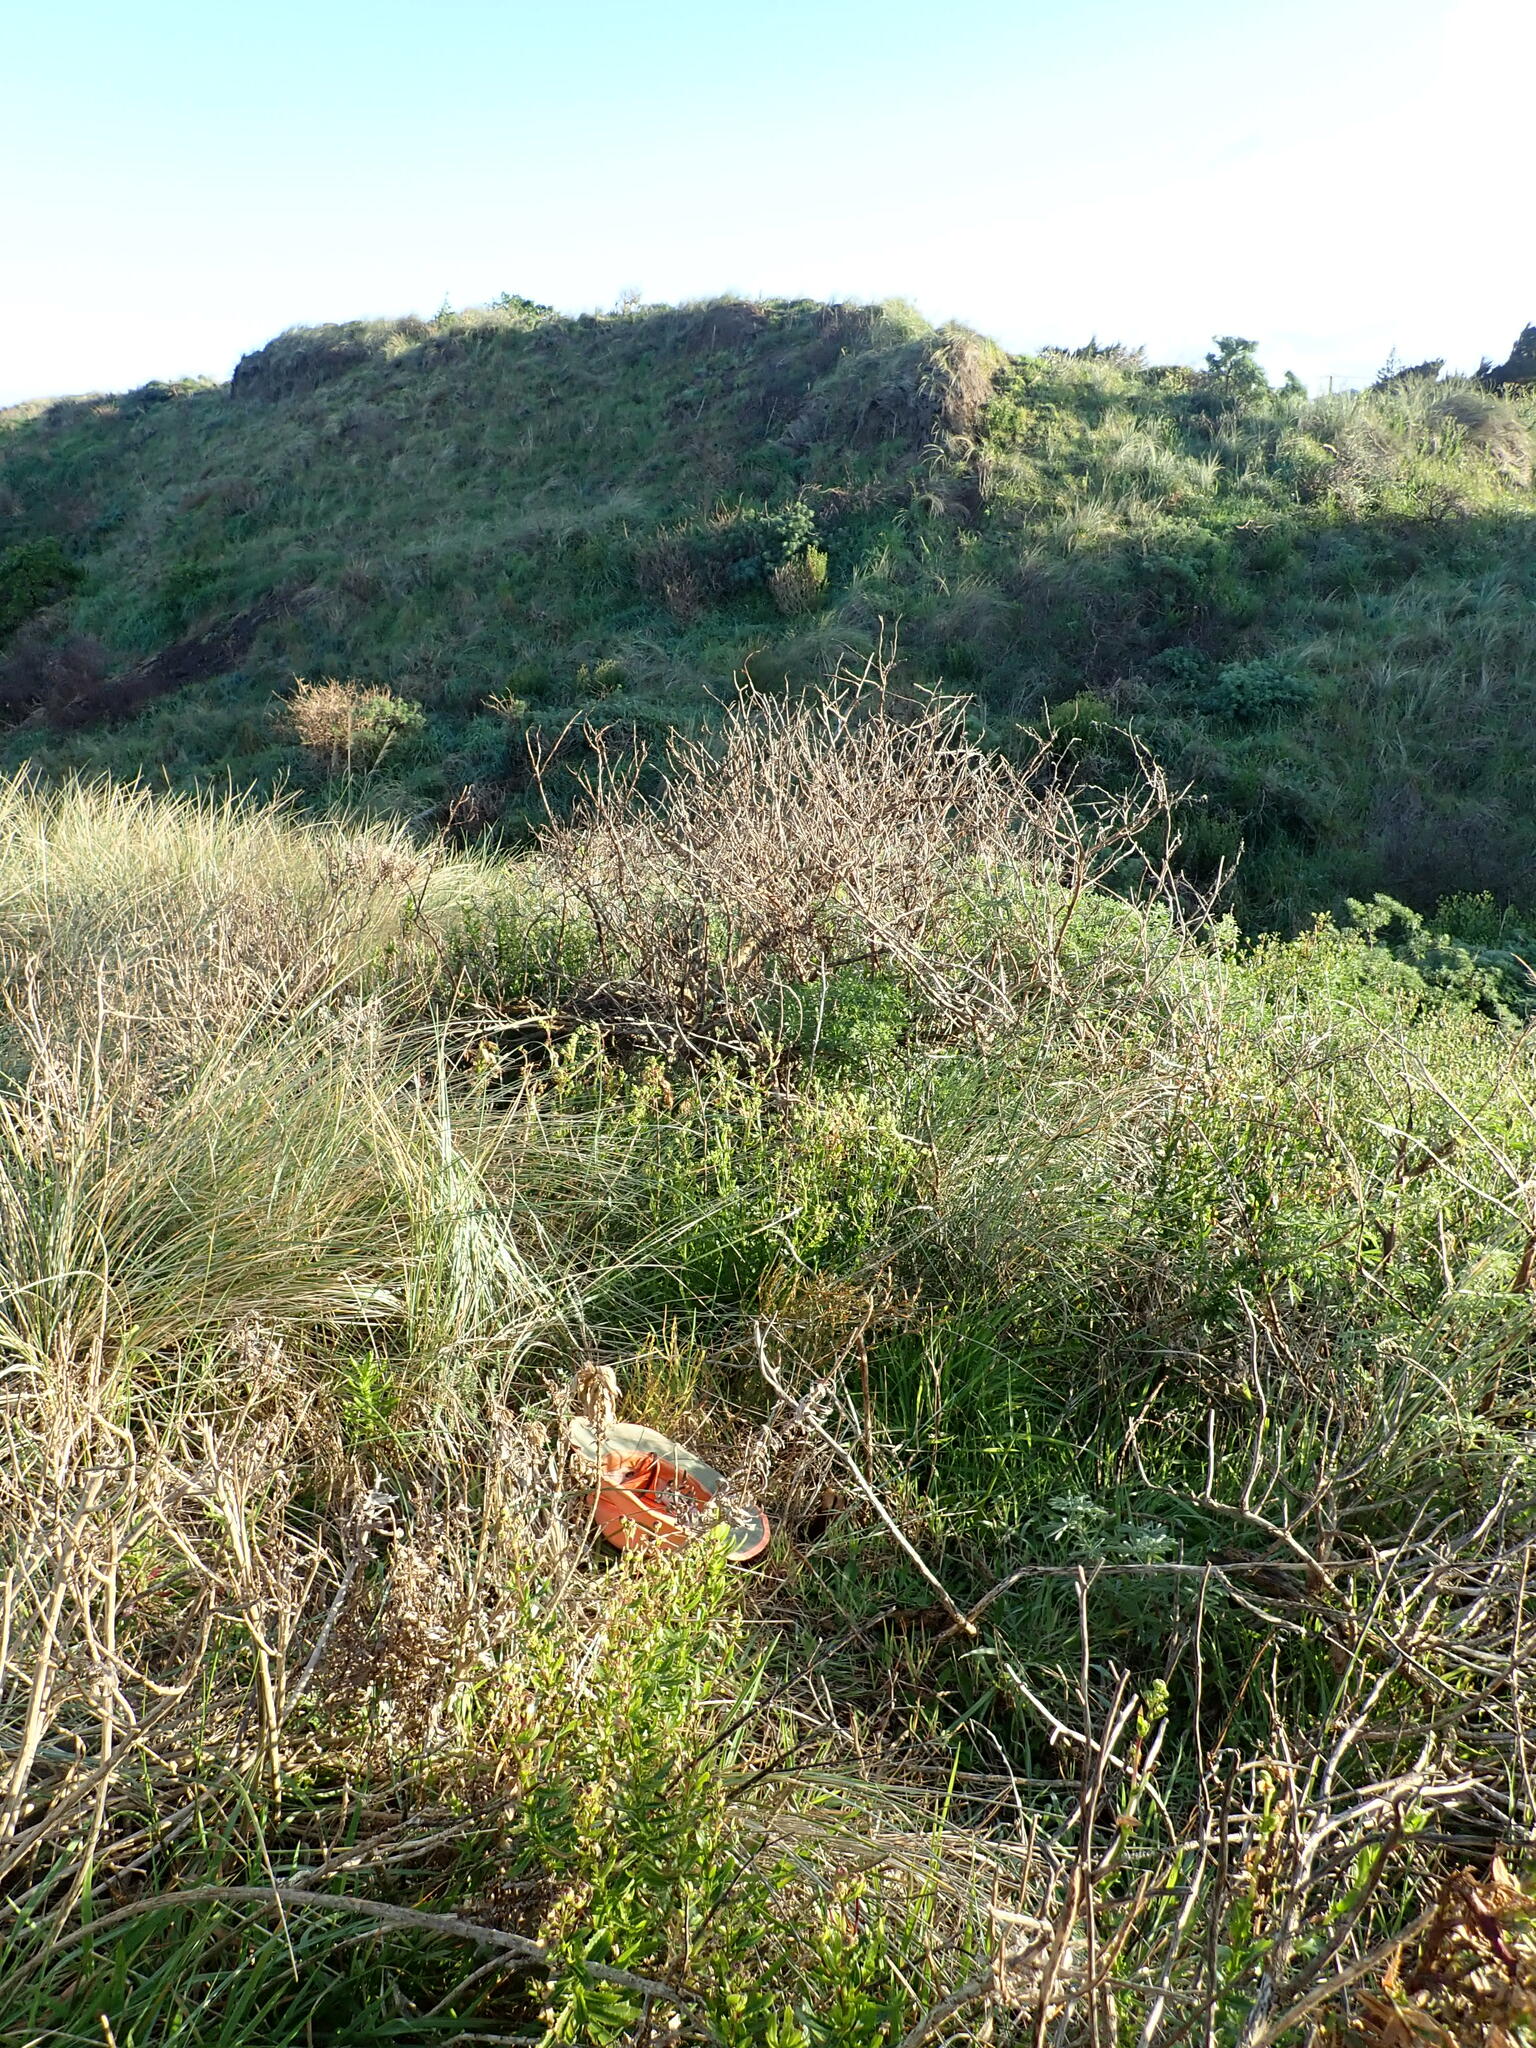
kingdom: Plantae
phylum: Tracheophyta
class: Magnoliopsida
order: Gentianales
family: Rubiaceae
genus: Coprosma
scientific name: Coprosma acerosa
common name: Sand coprosma
